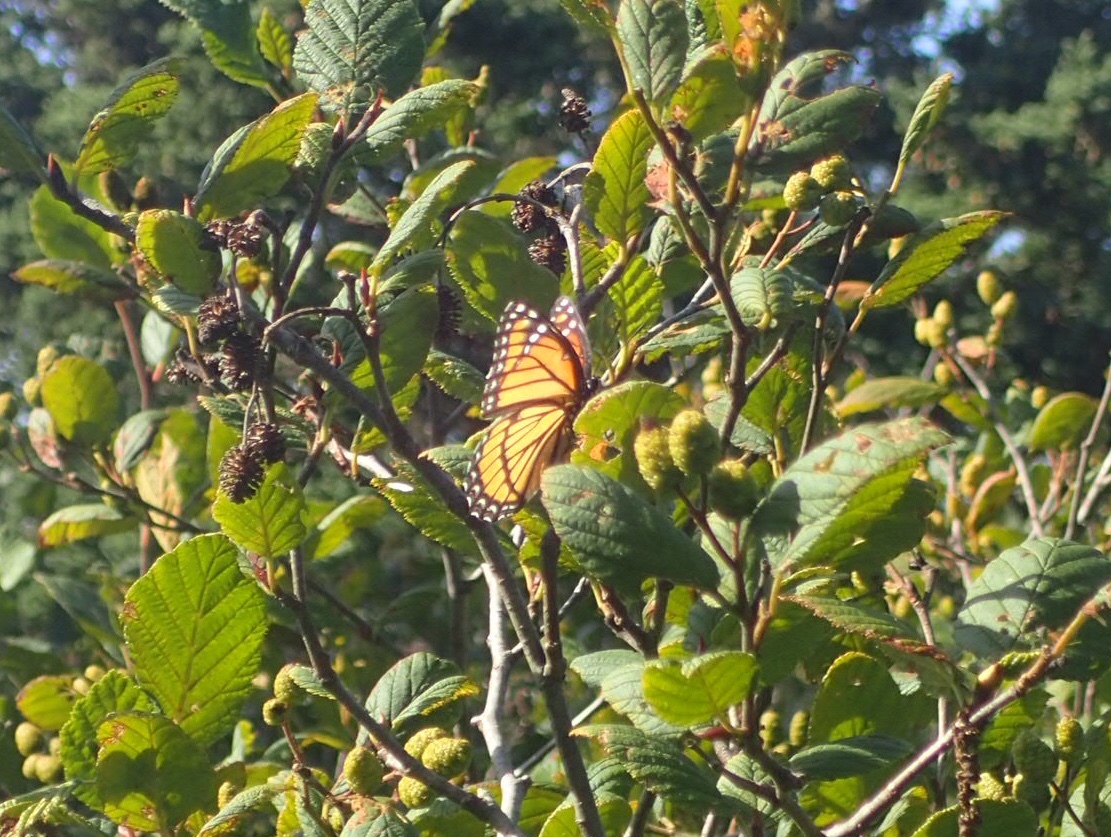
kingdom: Animalia
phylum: Arthropoda
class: Insecta
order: Lepidoptera
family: Nymphalidae
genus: Limenitis
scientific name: Limenitis archippus
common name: Viceroy
